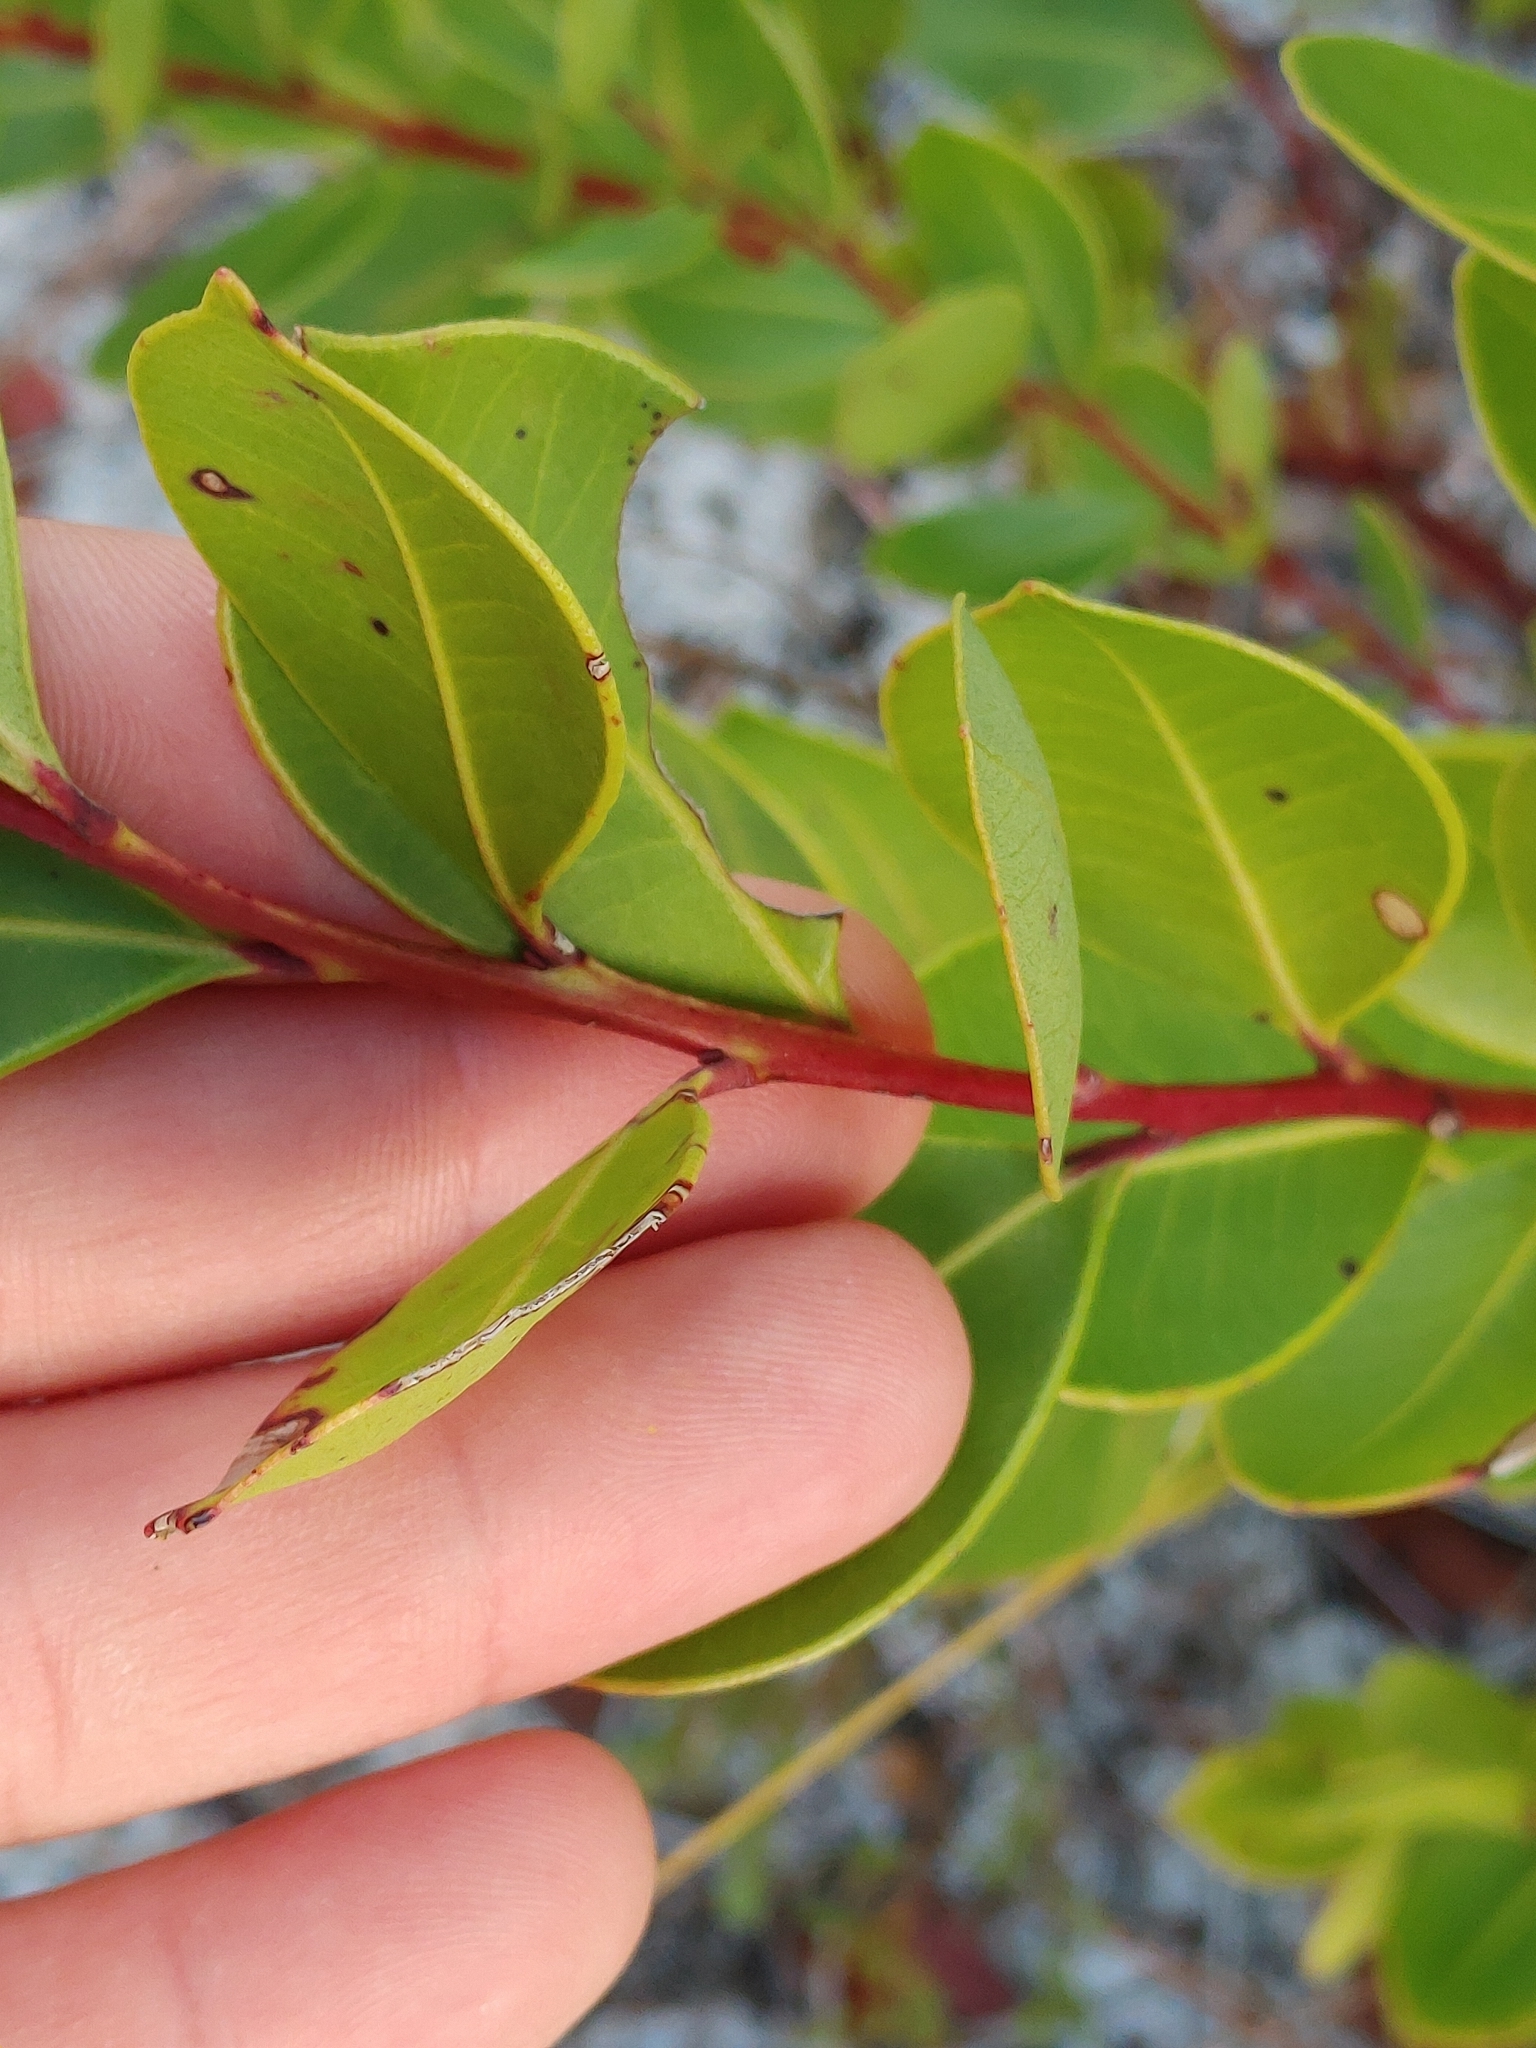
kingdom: Plantae
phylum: Tracheophyta
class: Magnoliopsida
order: Ericales
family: Ericaceae
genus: Lyonia
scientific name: Lyonia lucida
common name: Fetterbush
